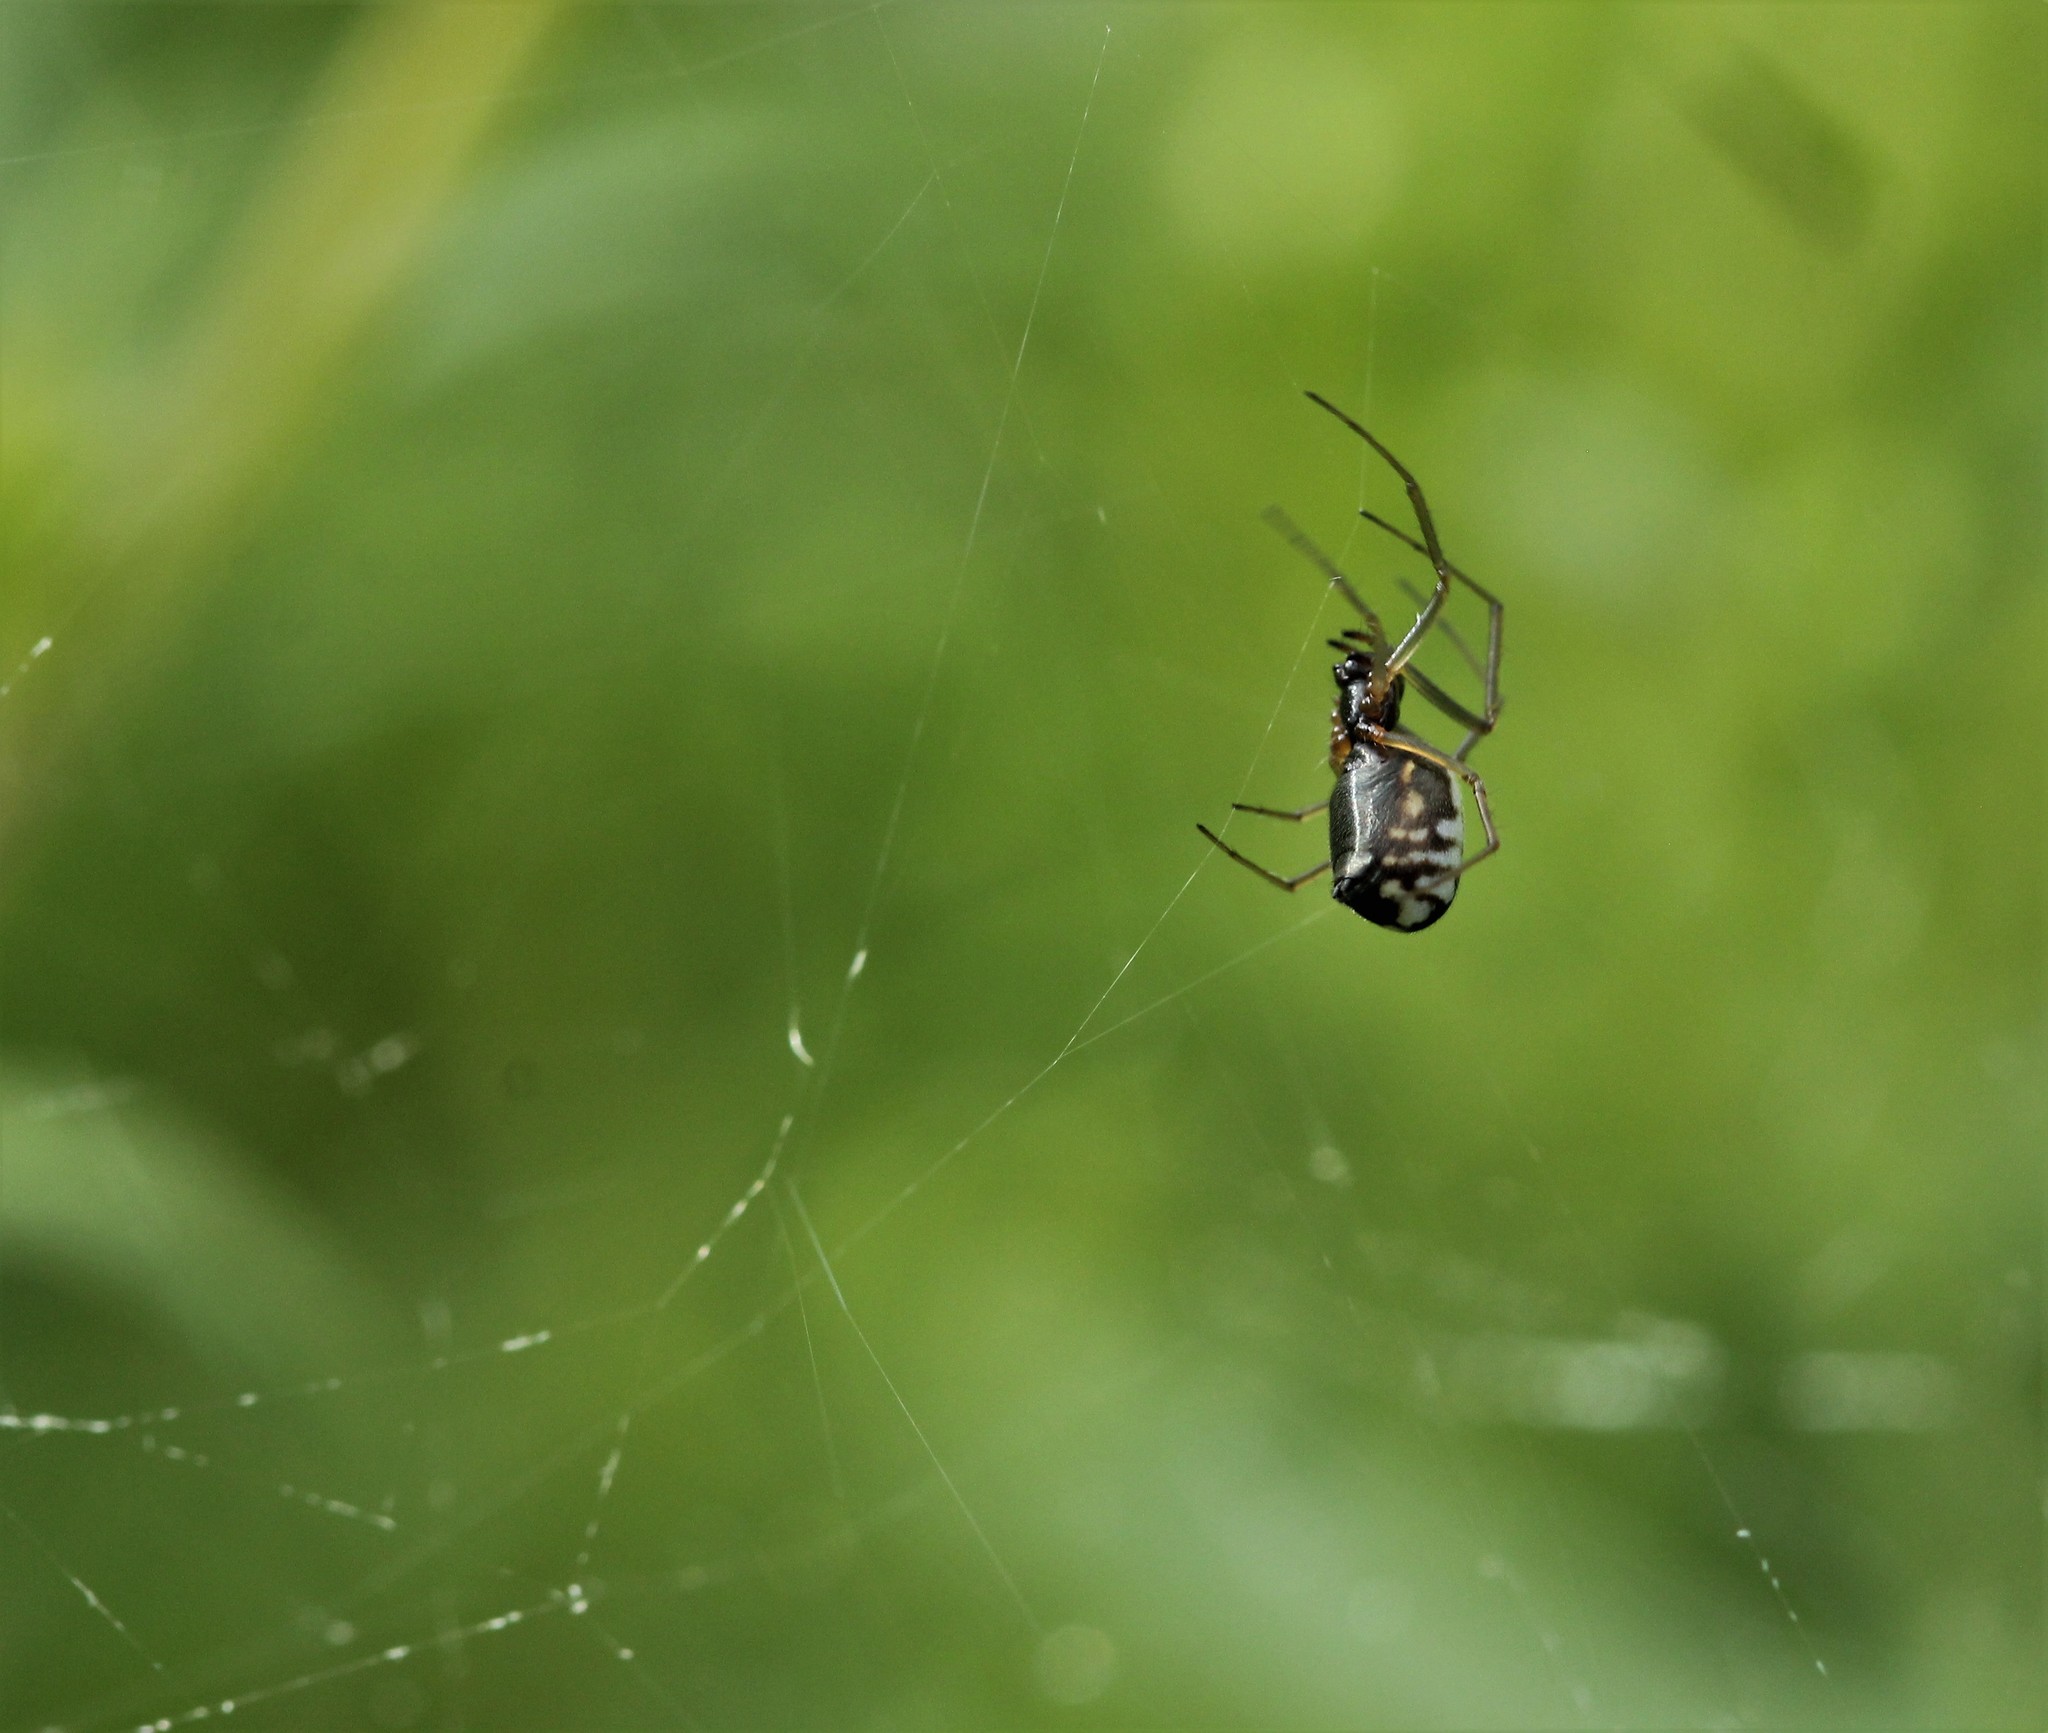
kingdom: Animalia
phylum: Arthropoda
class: Arachnida
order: Araneae
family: Linyphiidae
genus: Frontinella
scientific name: Frontinella pyramitela
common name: Bowl-and-doily spider
